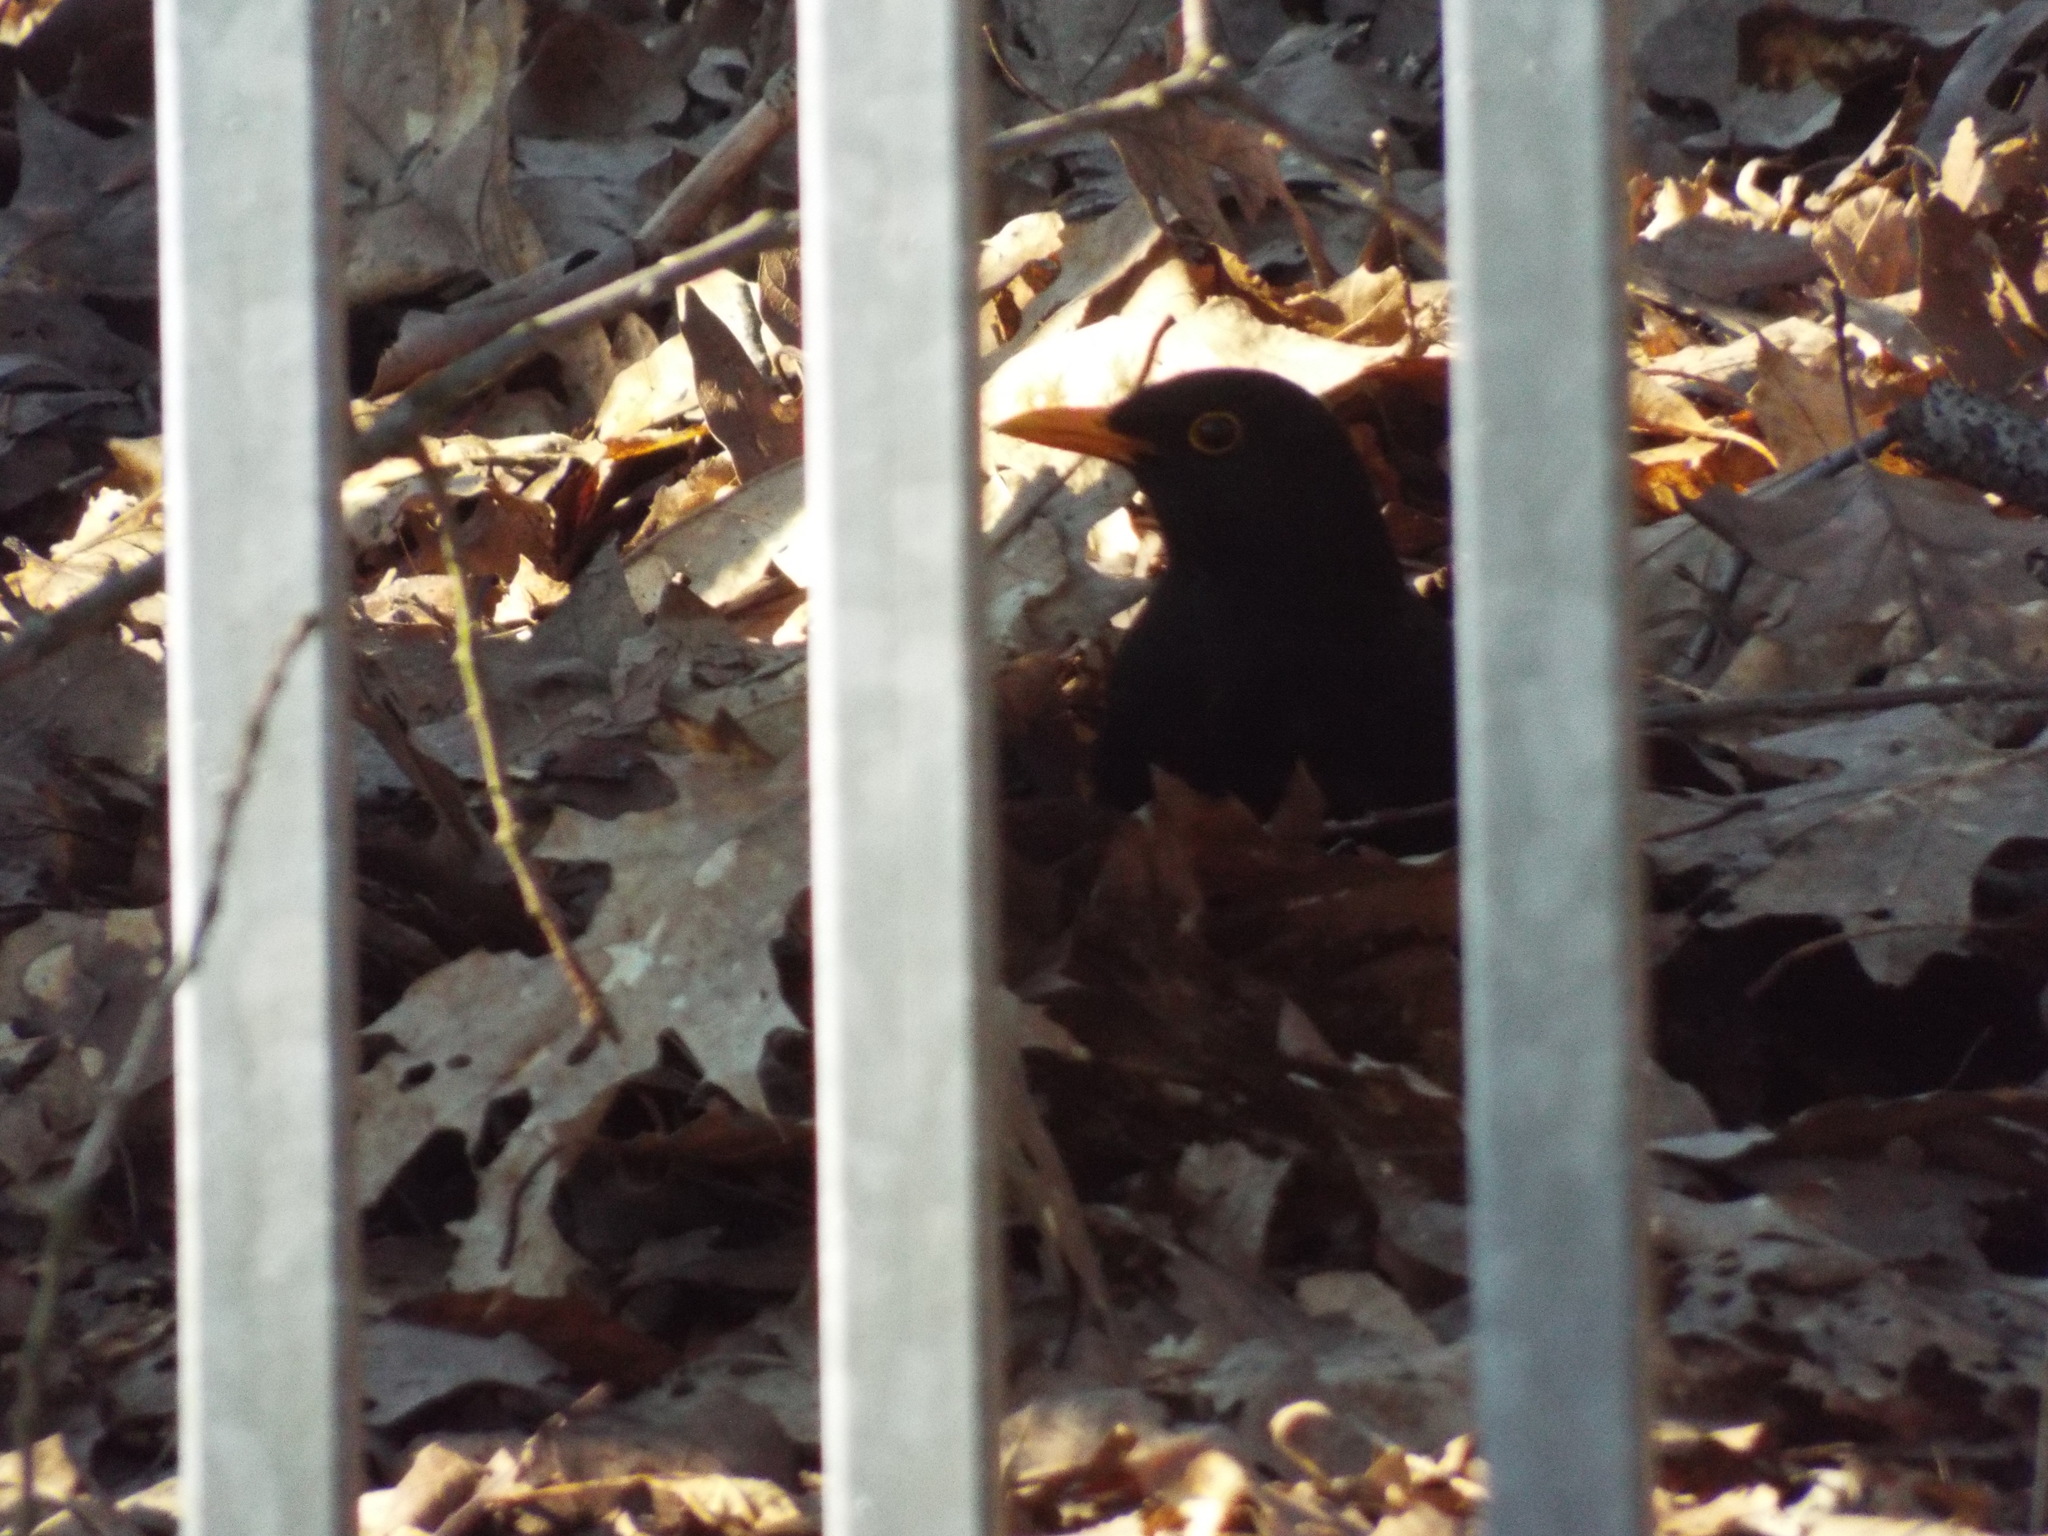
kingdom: Animalia
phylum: Chordata
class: Aves
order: Passeriformes
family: Turdidae
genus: Turdus
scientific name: Turdus merula
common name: Common blackbird
